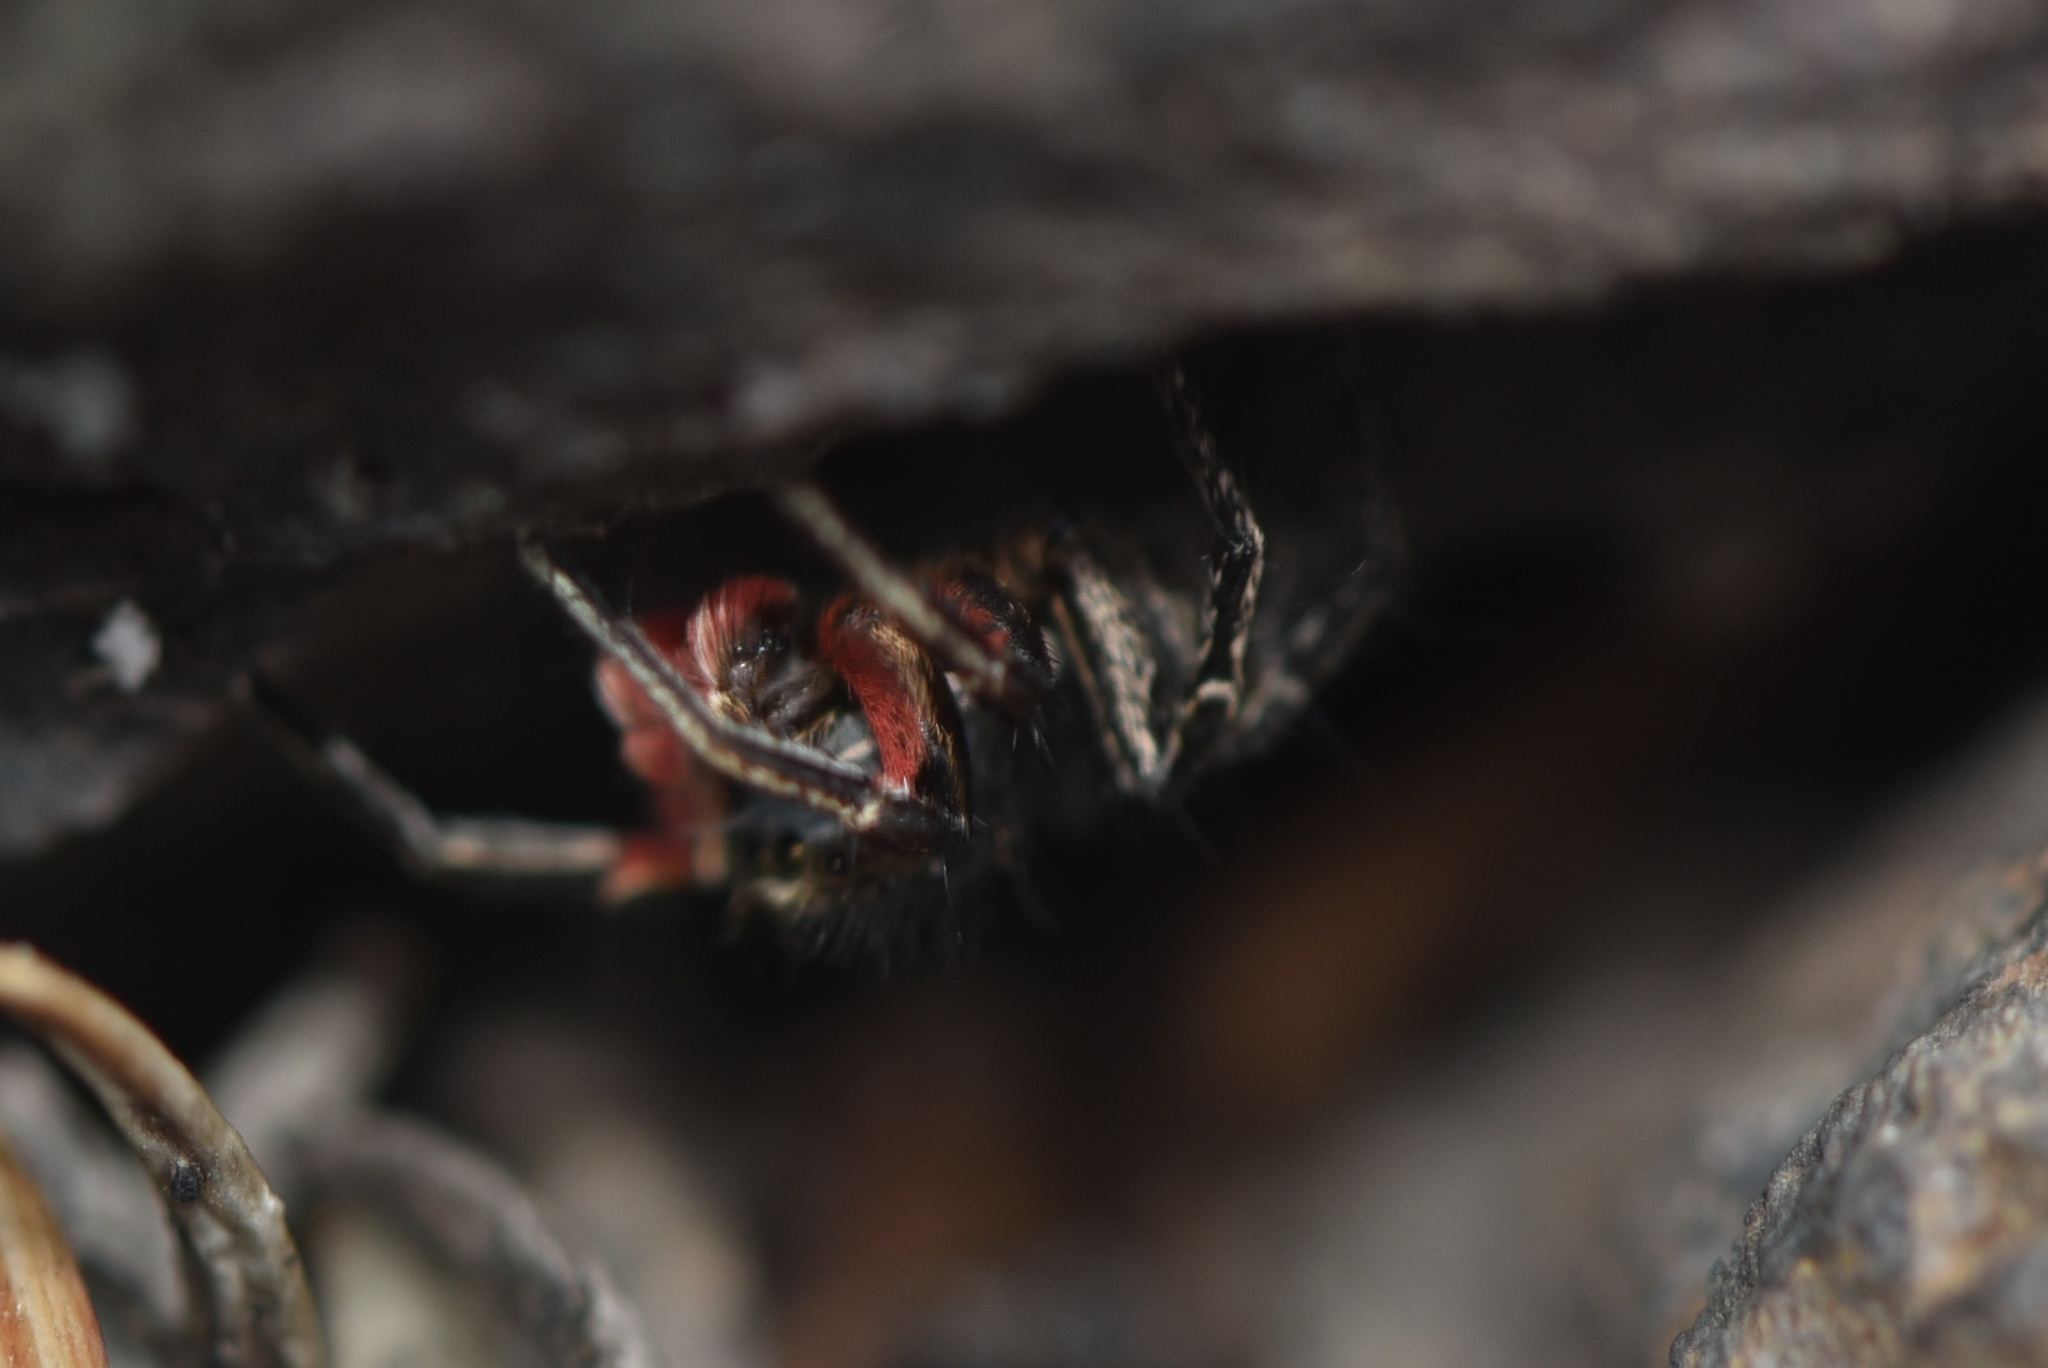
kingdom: Animalia
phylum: Arthropoda
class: Arachnida
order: Araneae
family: Salticidae
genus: Habronattus
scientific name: Habronattus americanus
